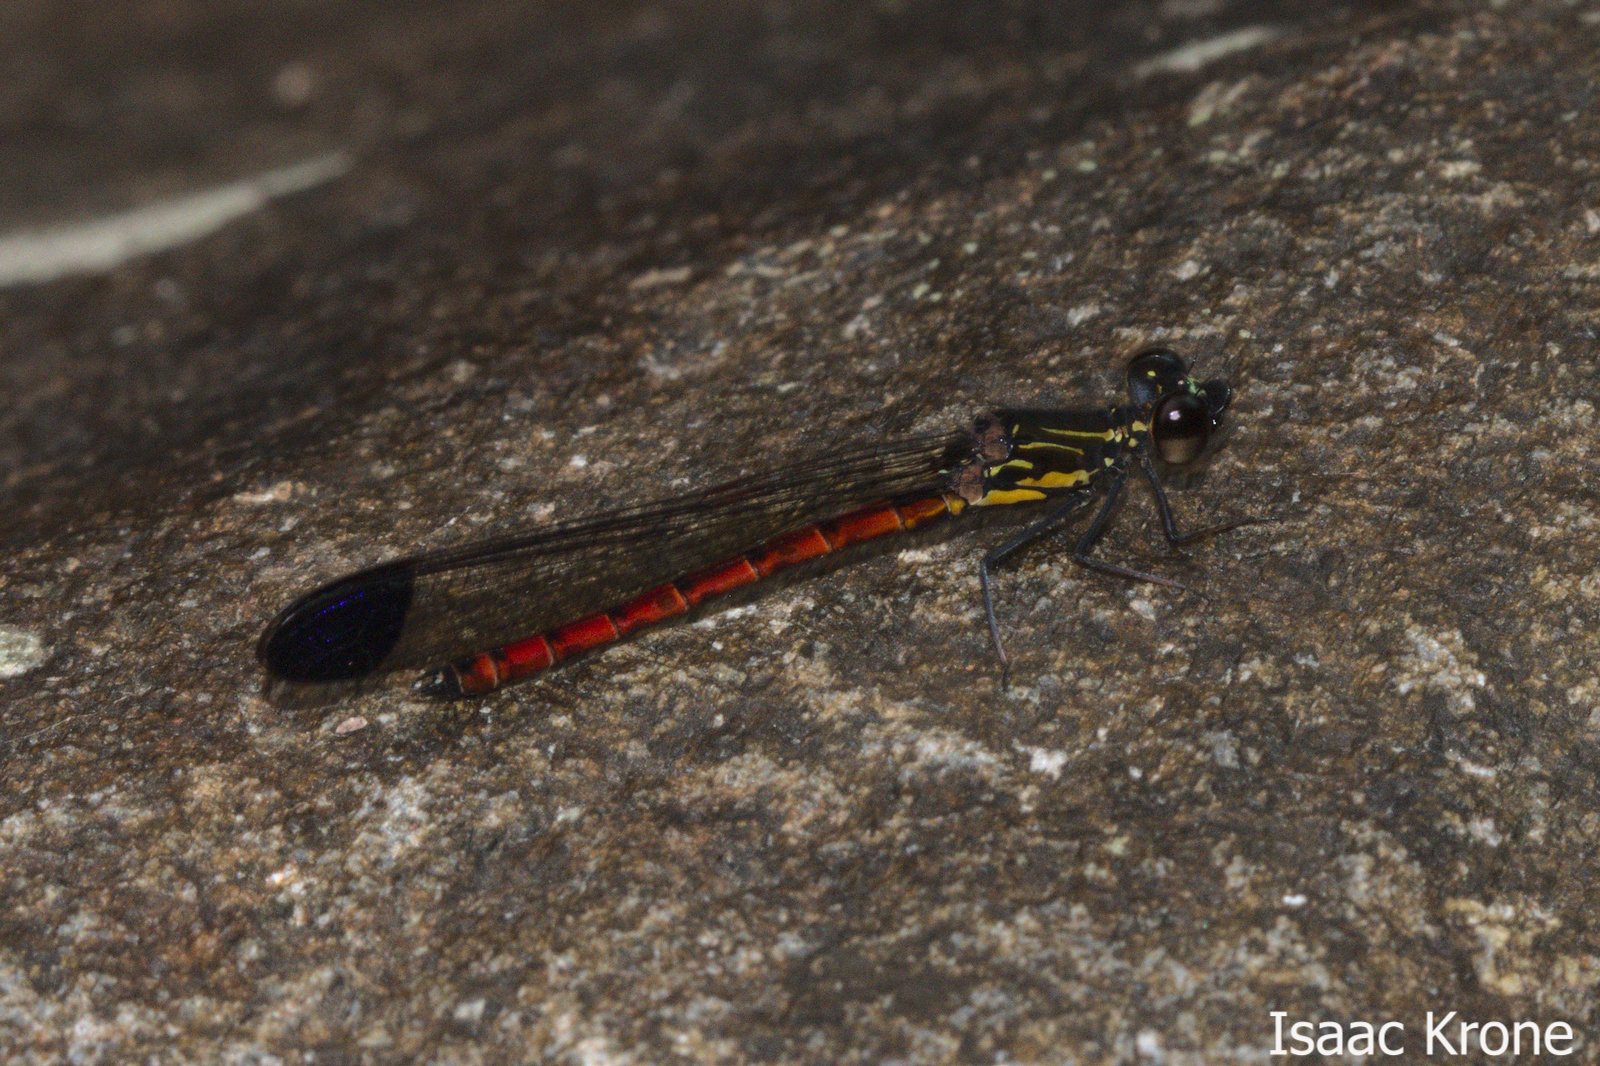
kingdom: Animalia
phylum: Arthropoda
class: Insecta
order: Odonata
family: Chlorocyphidae
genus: Libellago
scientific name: Libellago manganitu
